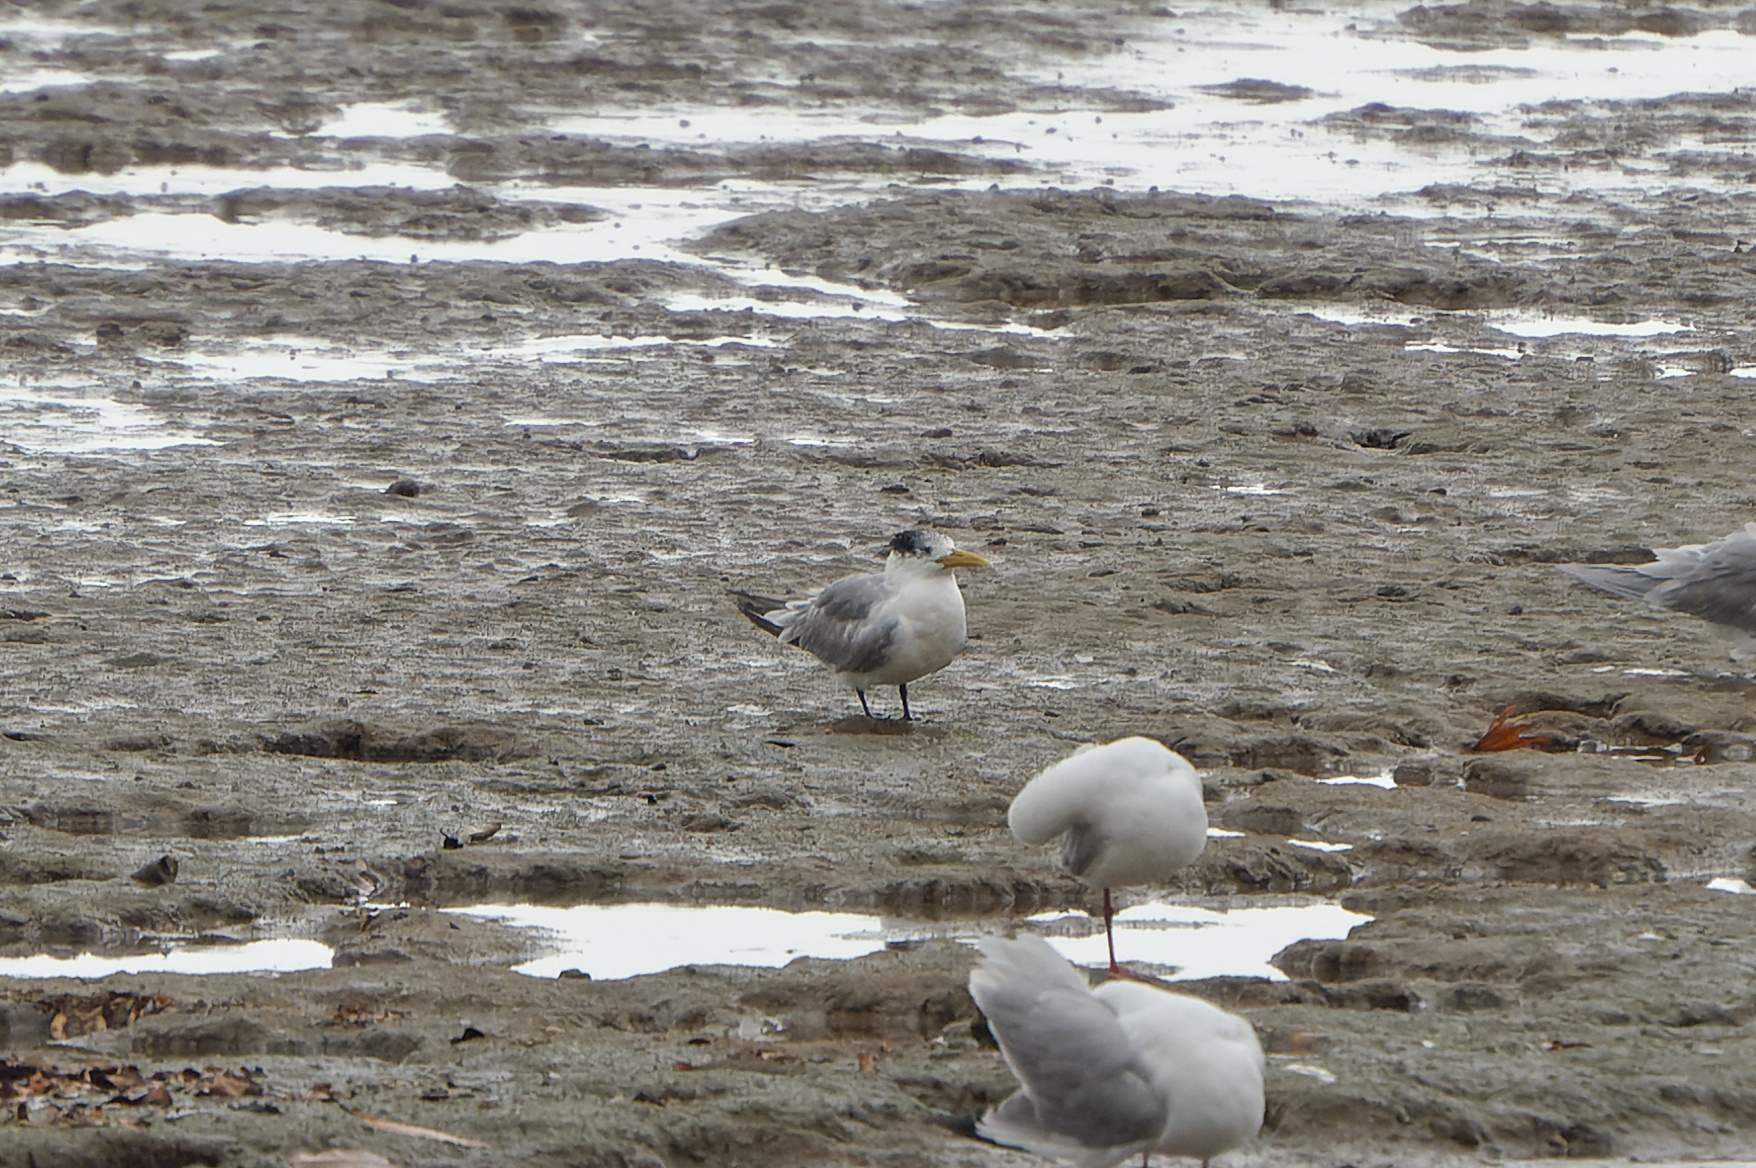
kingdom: Animalia
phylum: Chordata
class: Aves
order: Charadriiformes
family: Laridae
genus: Thalasseus
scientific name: Thalasseus bergii
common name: Greater crested tern
